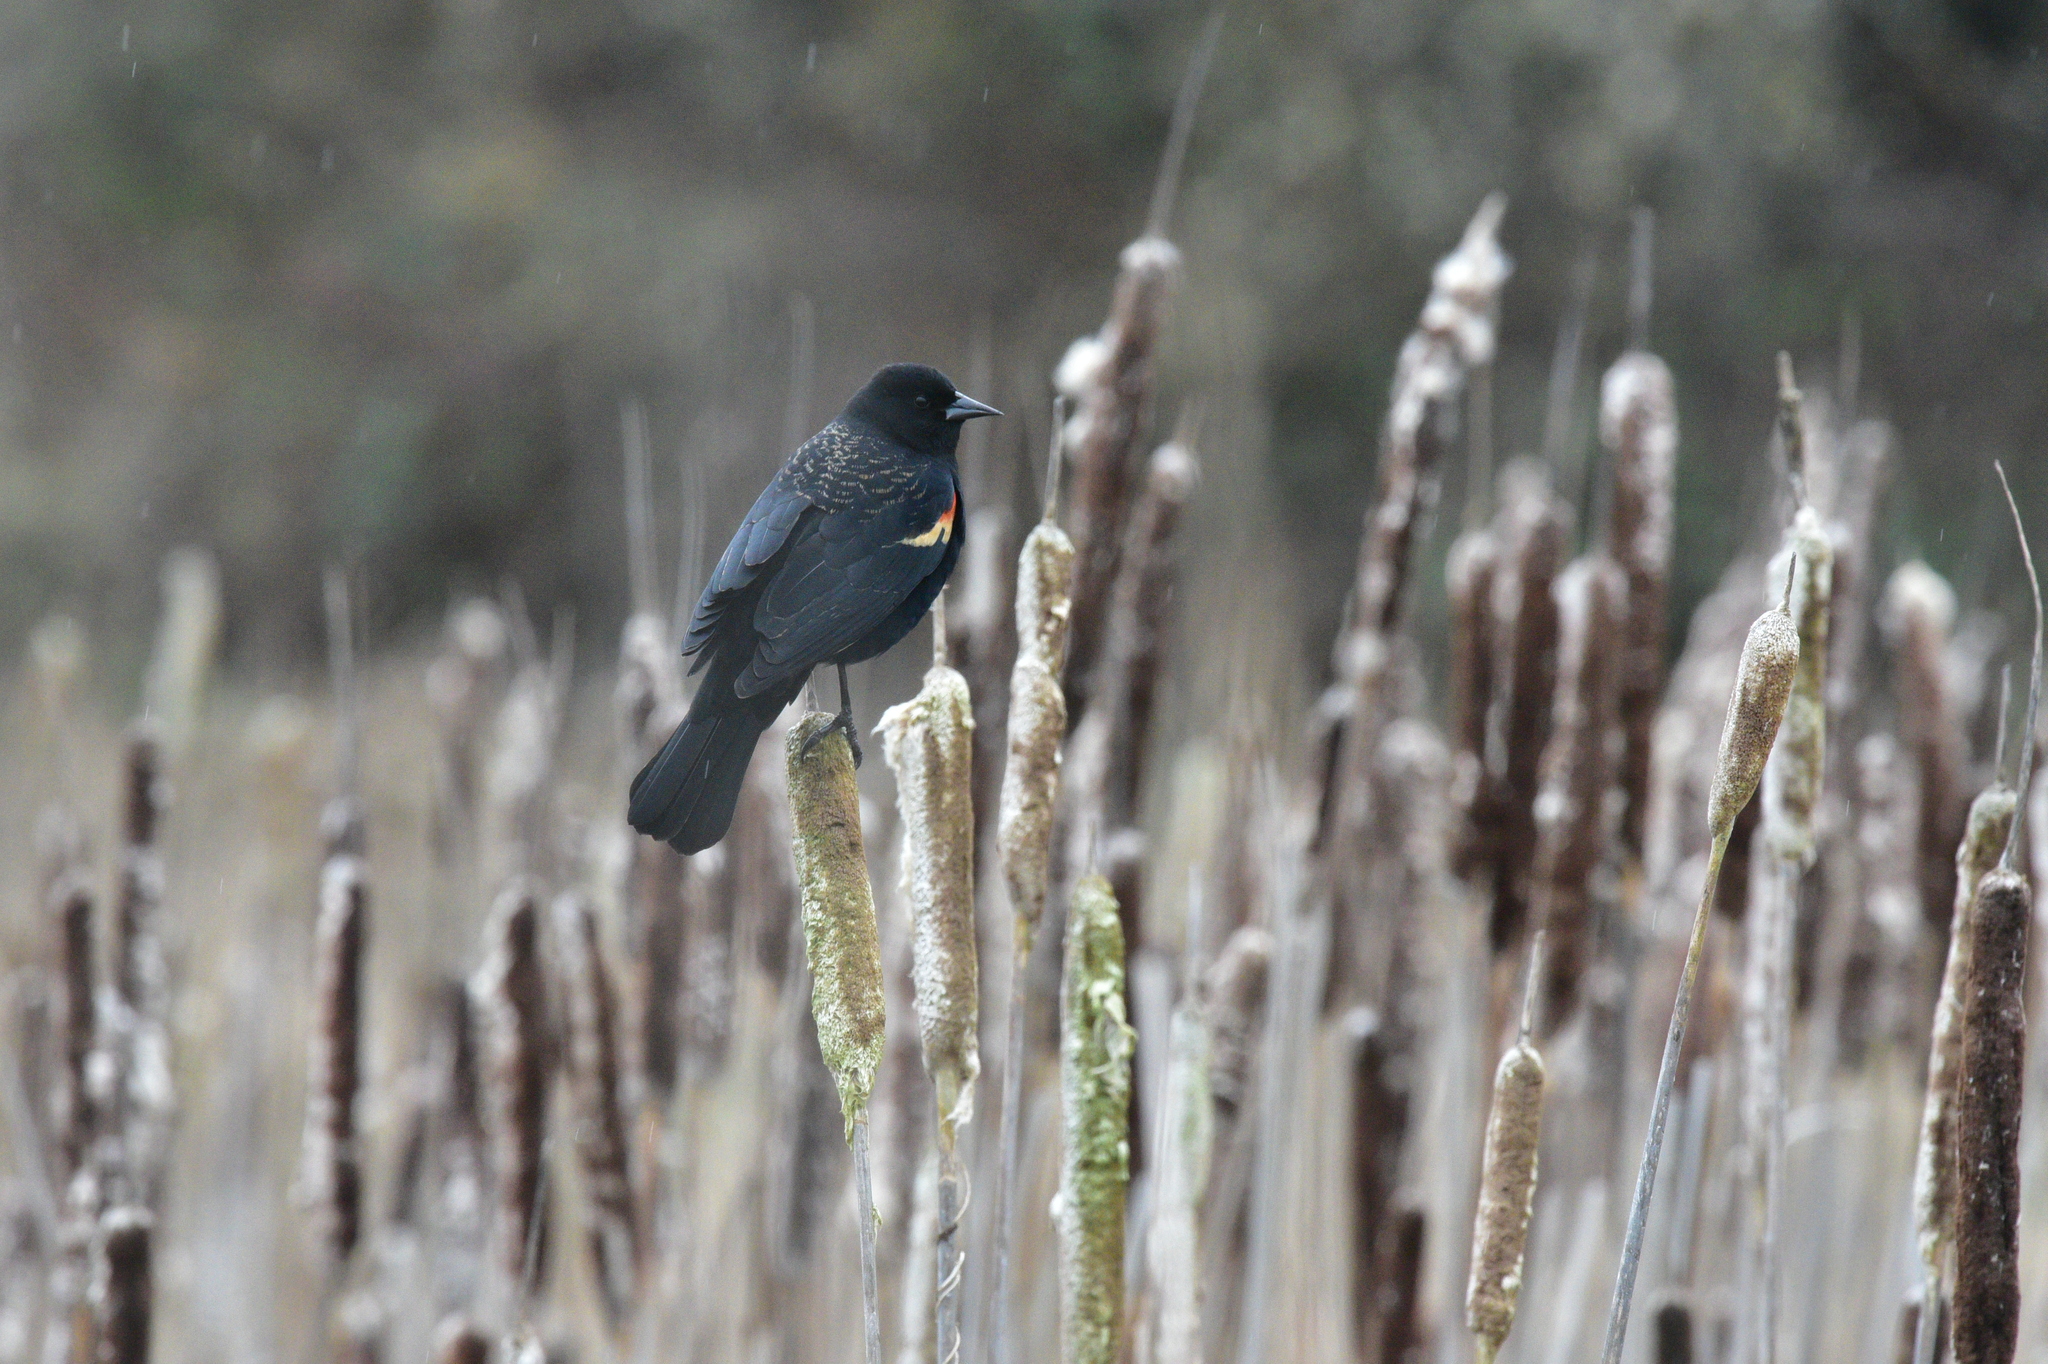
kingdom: Animalia
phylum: Chordata
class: Aves
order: Passeriformes
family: Icteridae
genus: Agelaius
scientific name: Agelaius phoeniceus
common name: Red-winged blackbird
